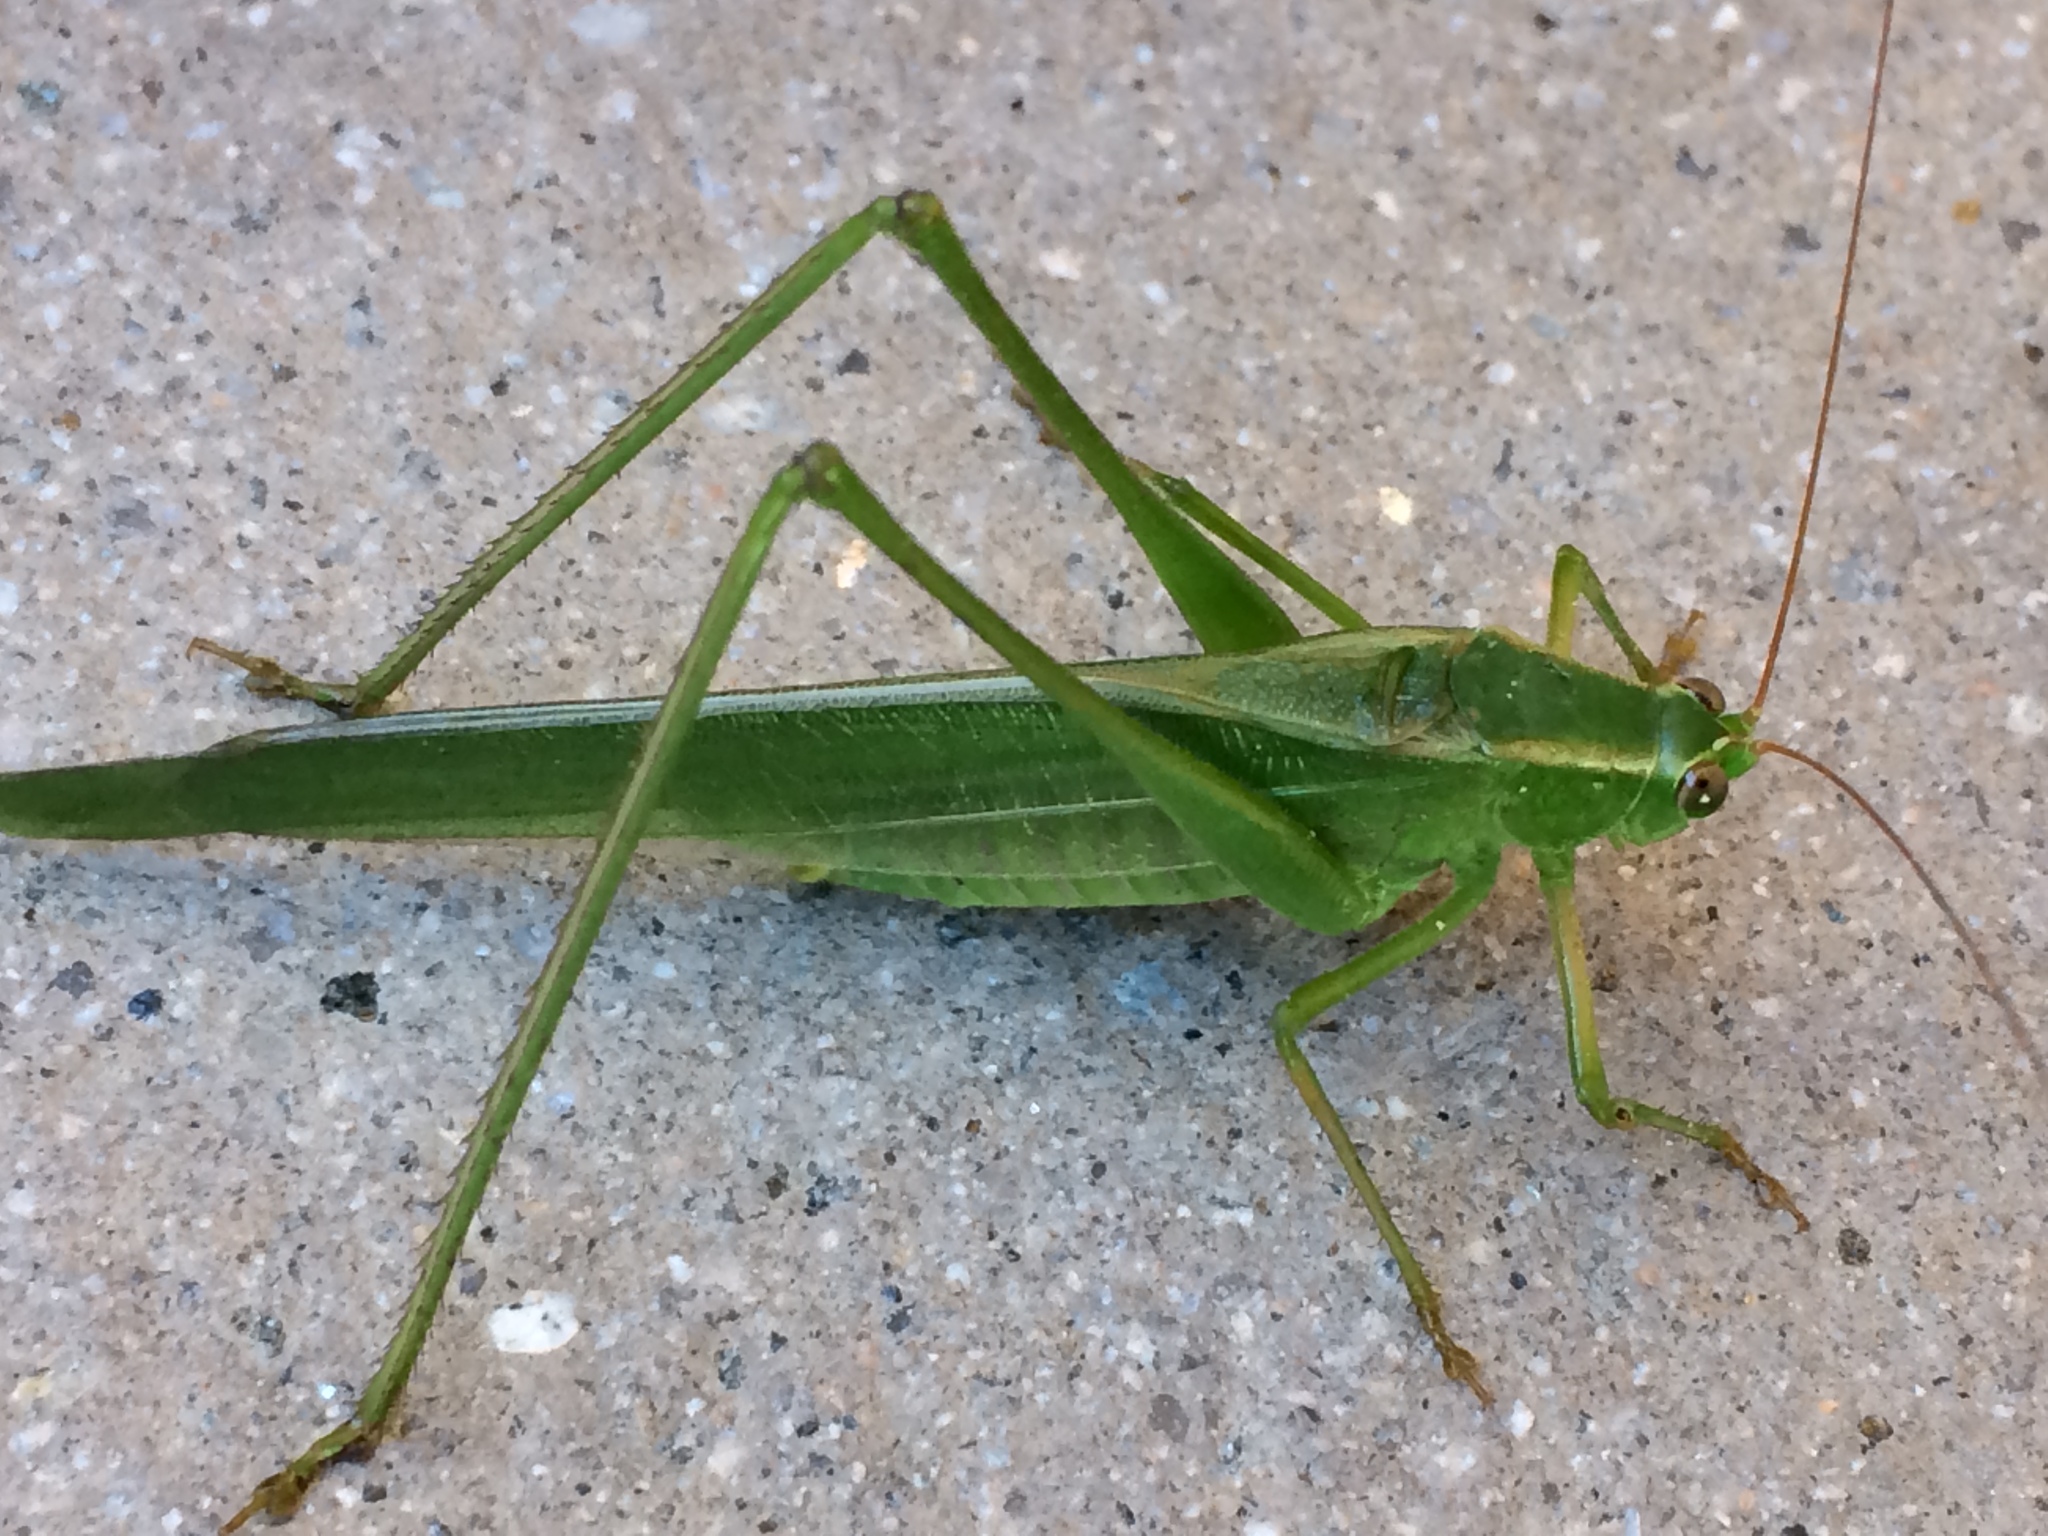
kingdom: Animalia
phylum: Arthropoda
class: Insecta
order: Orthoptera
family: Tettigoniidae
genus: Scudderia
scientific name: Scudderia mexicana
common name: Mexican bush katydid
